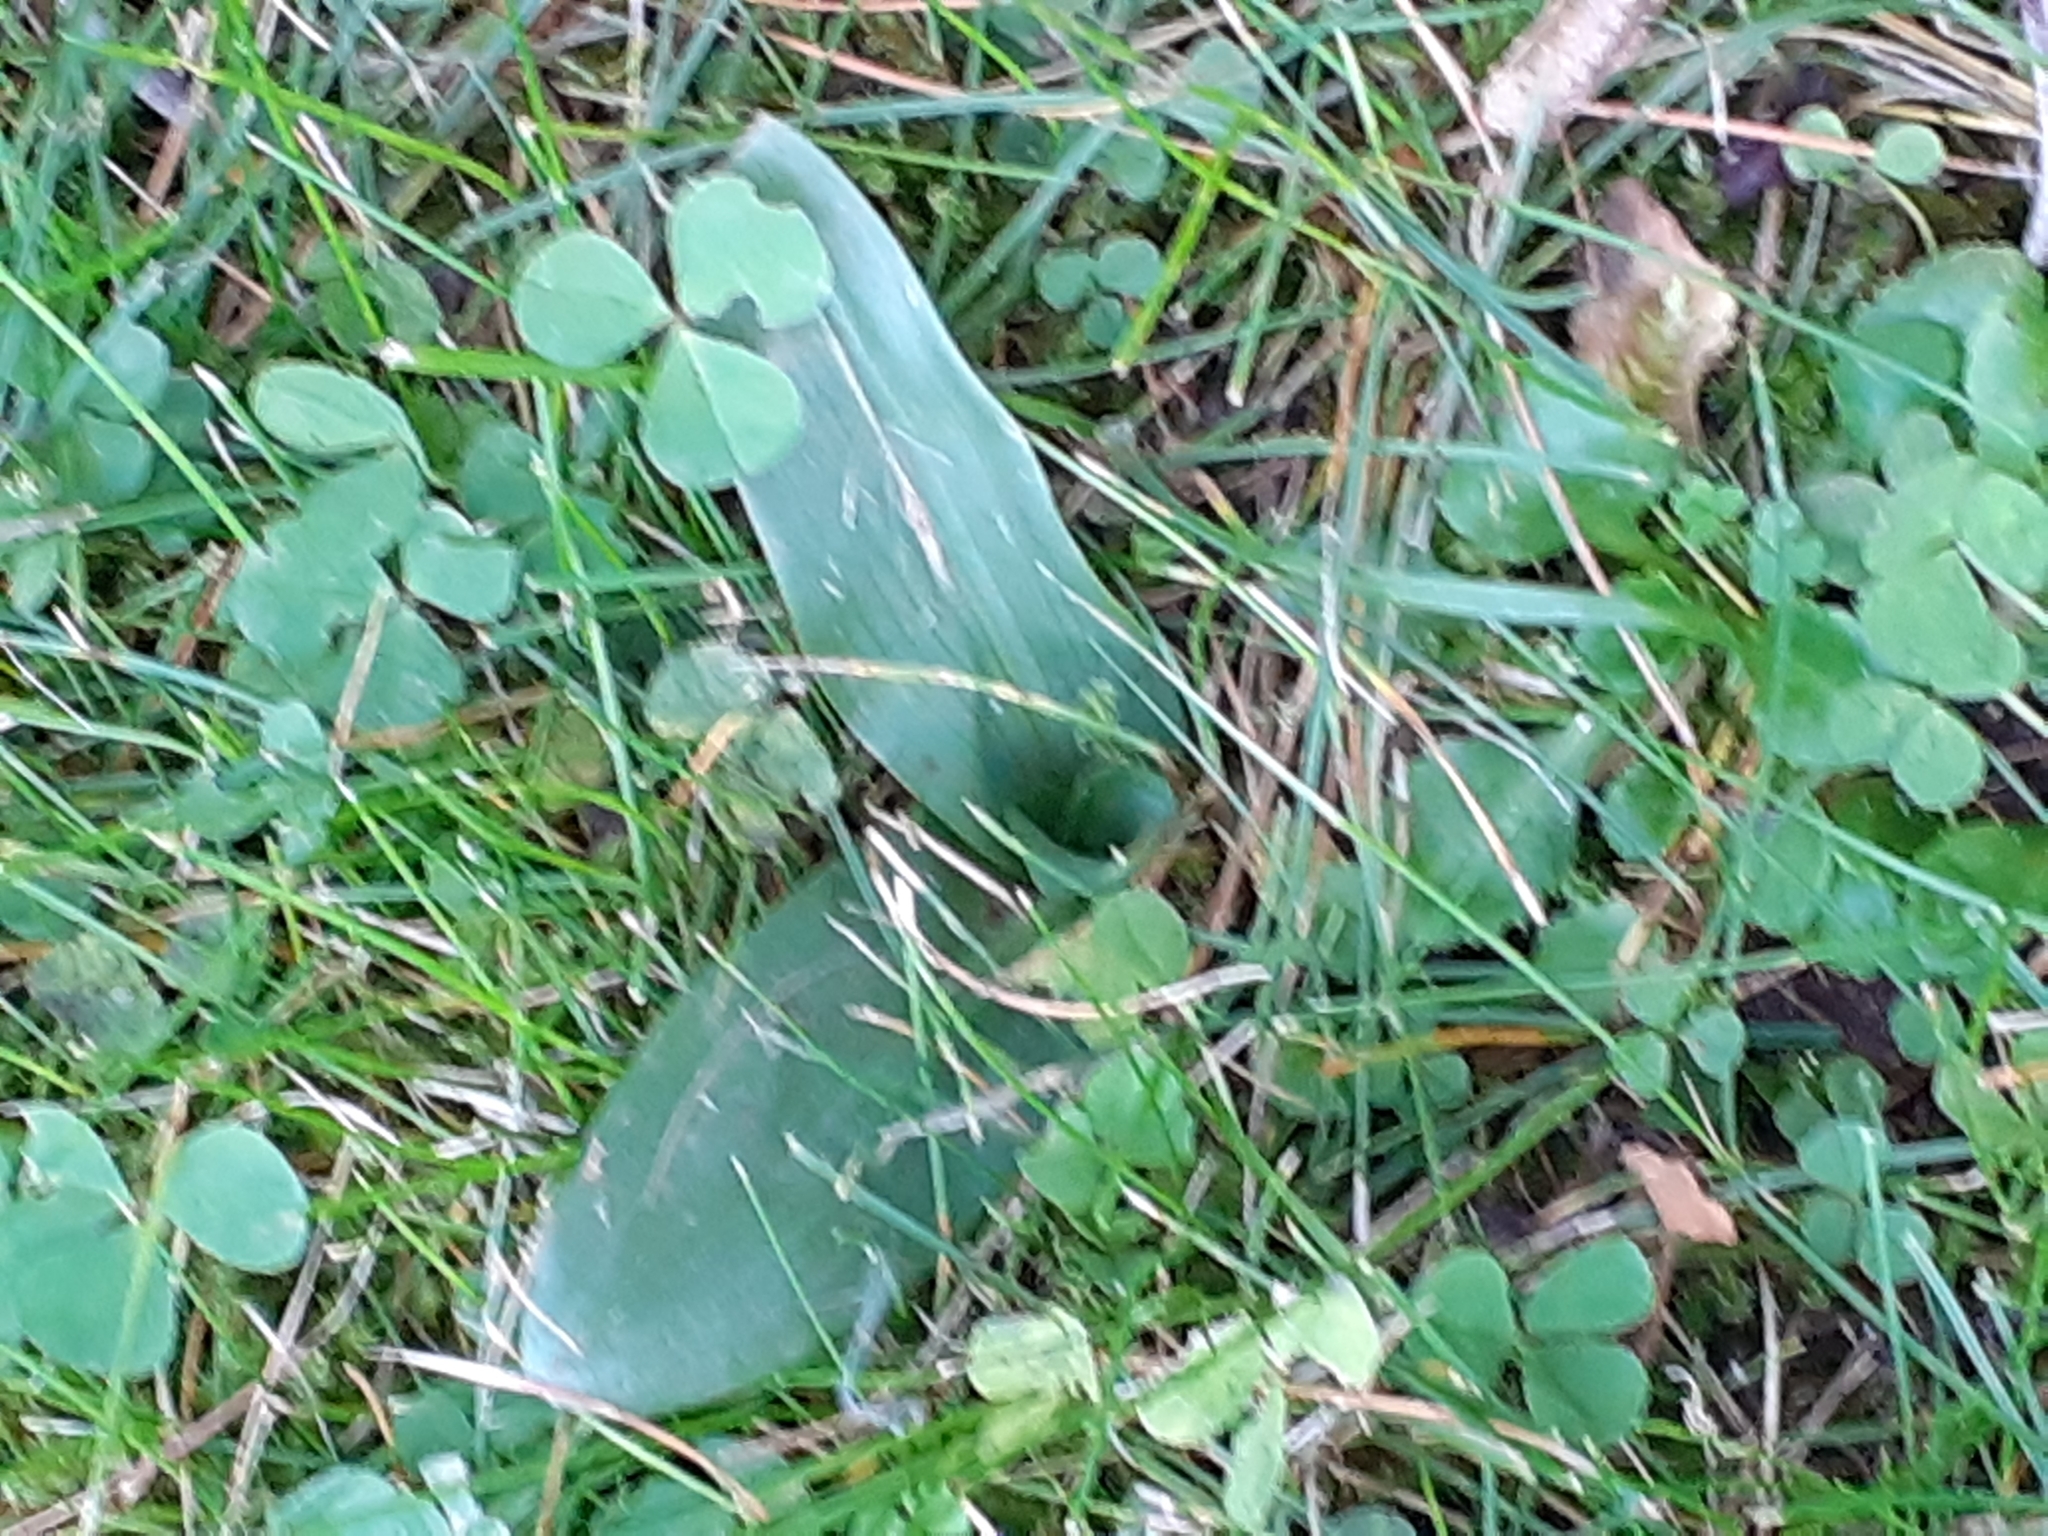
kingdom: Plantae
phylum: Tracheophyta
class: Liliopsida
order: Asparagales
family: Orchidaceae
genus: Ophrys
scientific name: Ophrys apifera
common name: Bee orchid
